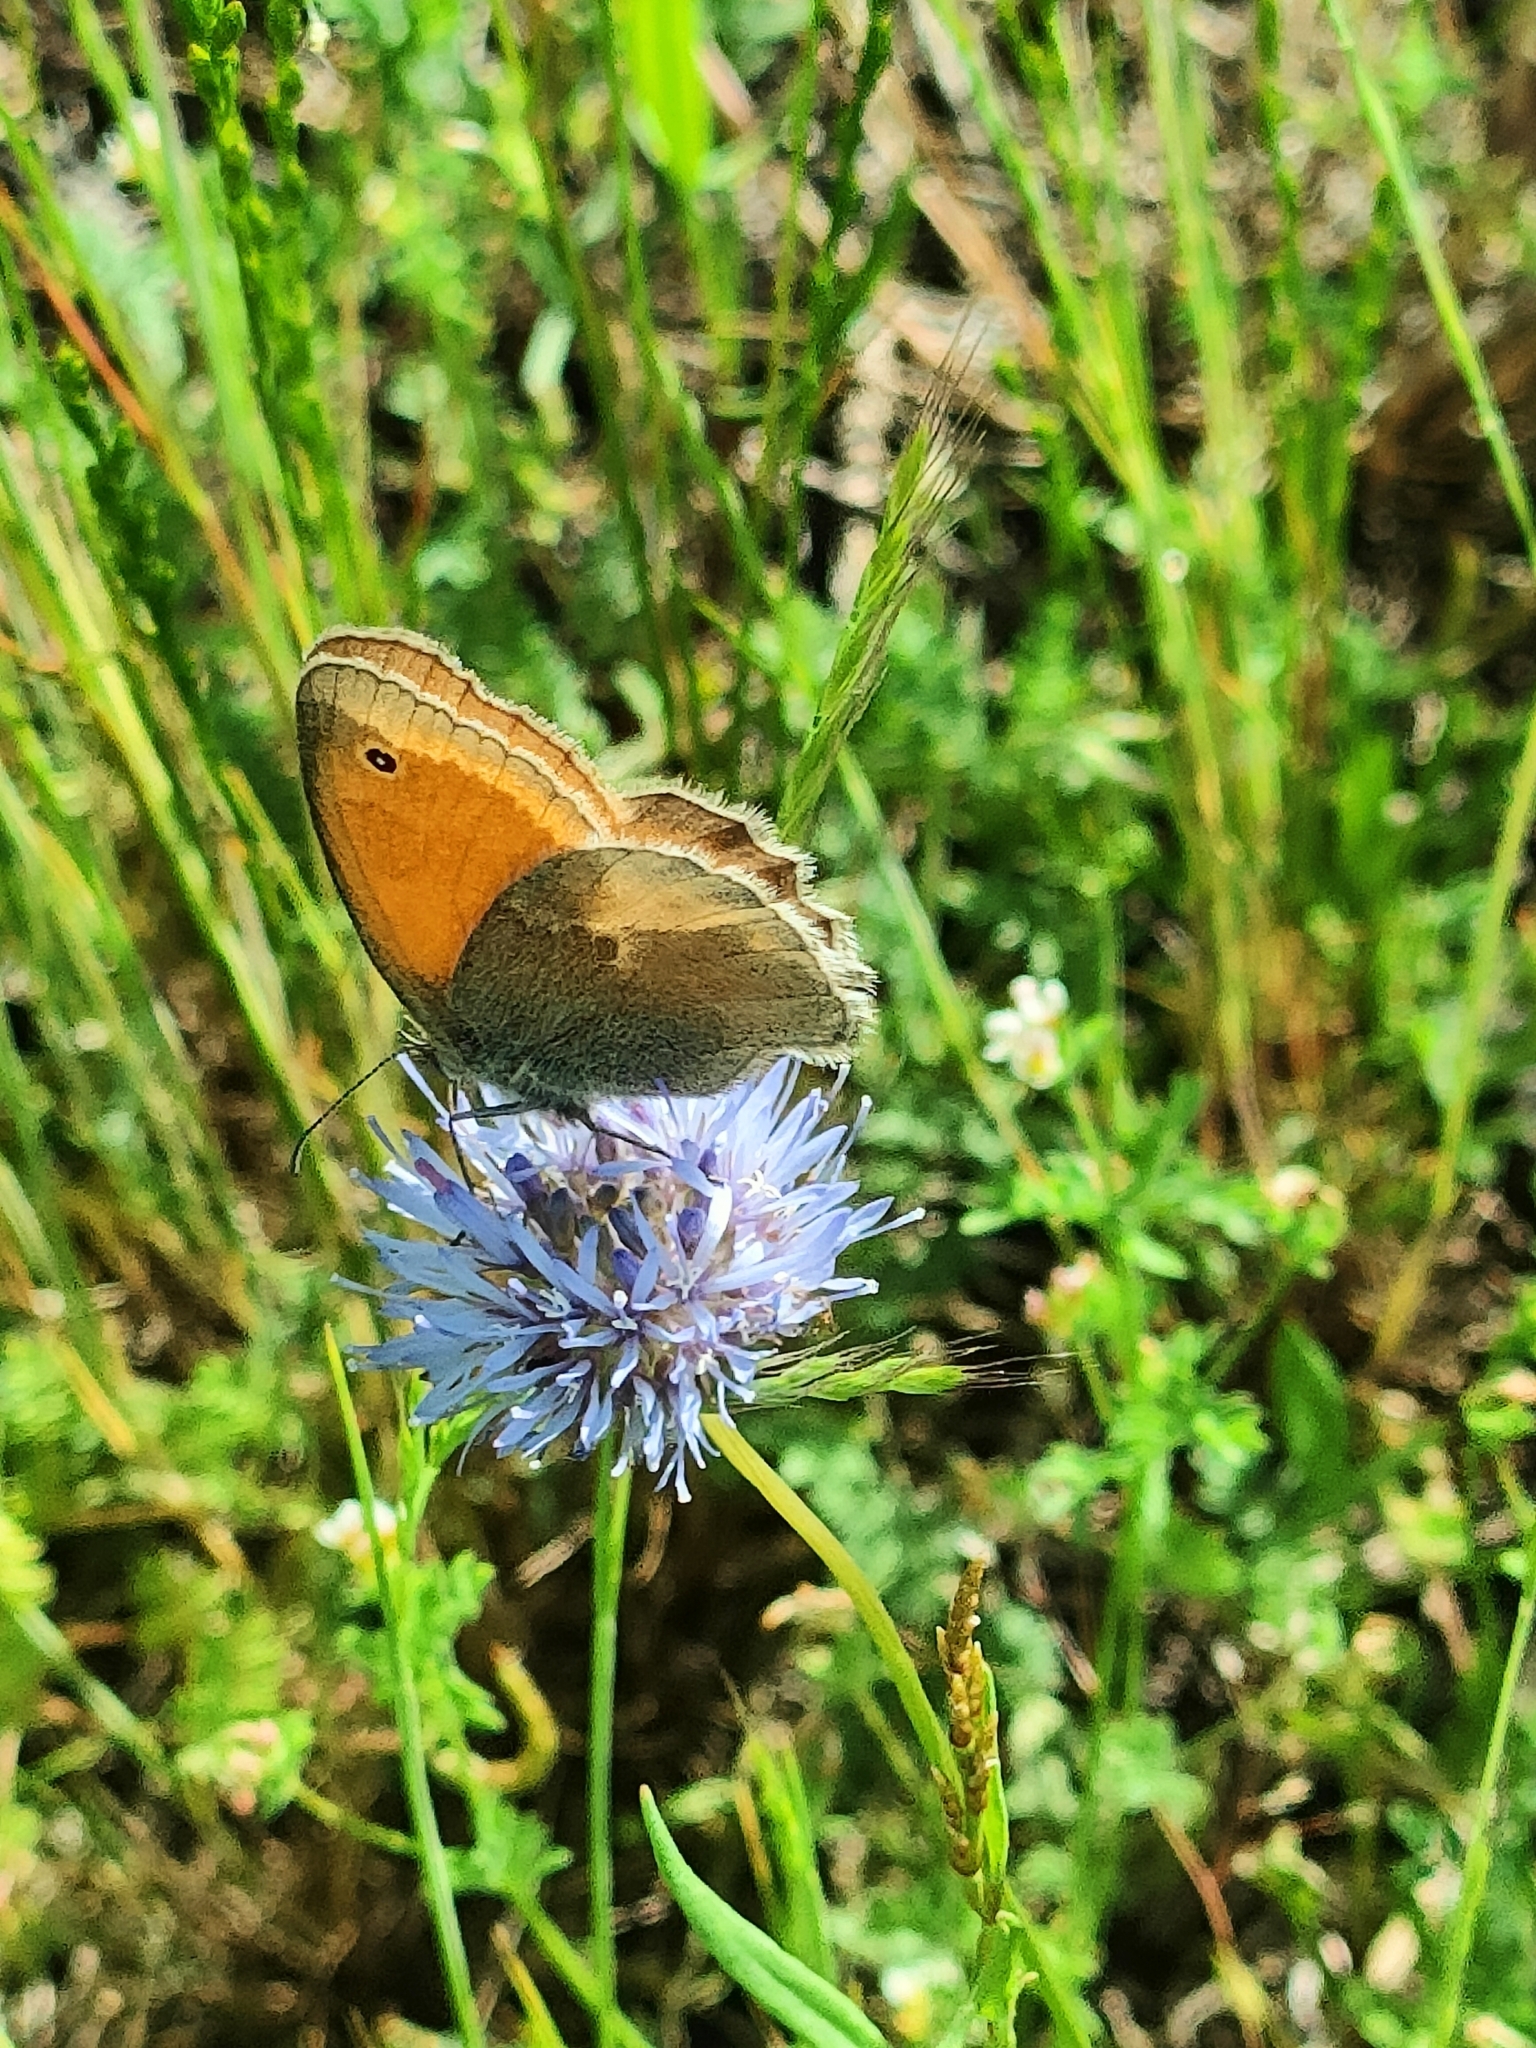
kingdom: Animalia
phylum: Arthropoda
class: Insecta
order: Lepidoptera
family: Nymphalidae
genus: Coenonympha
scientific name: Coenonympha pamphilus
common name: Small heath
